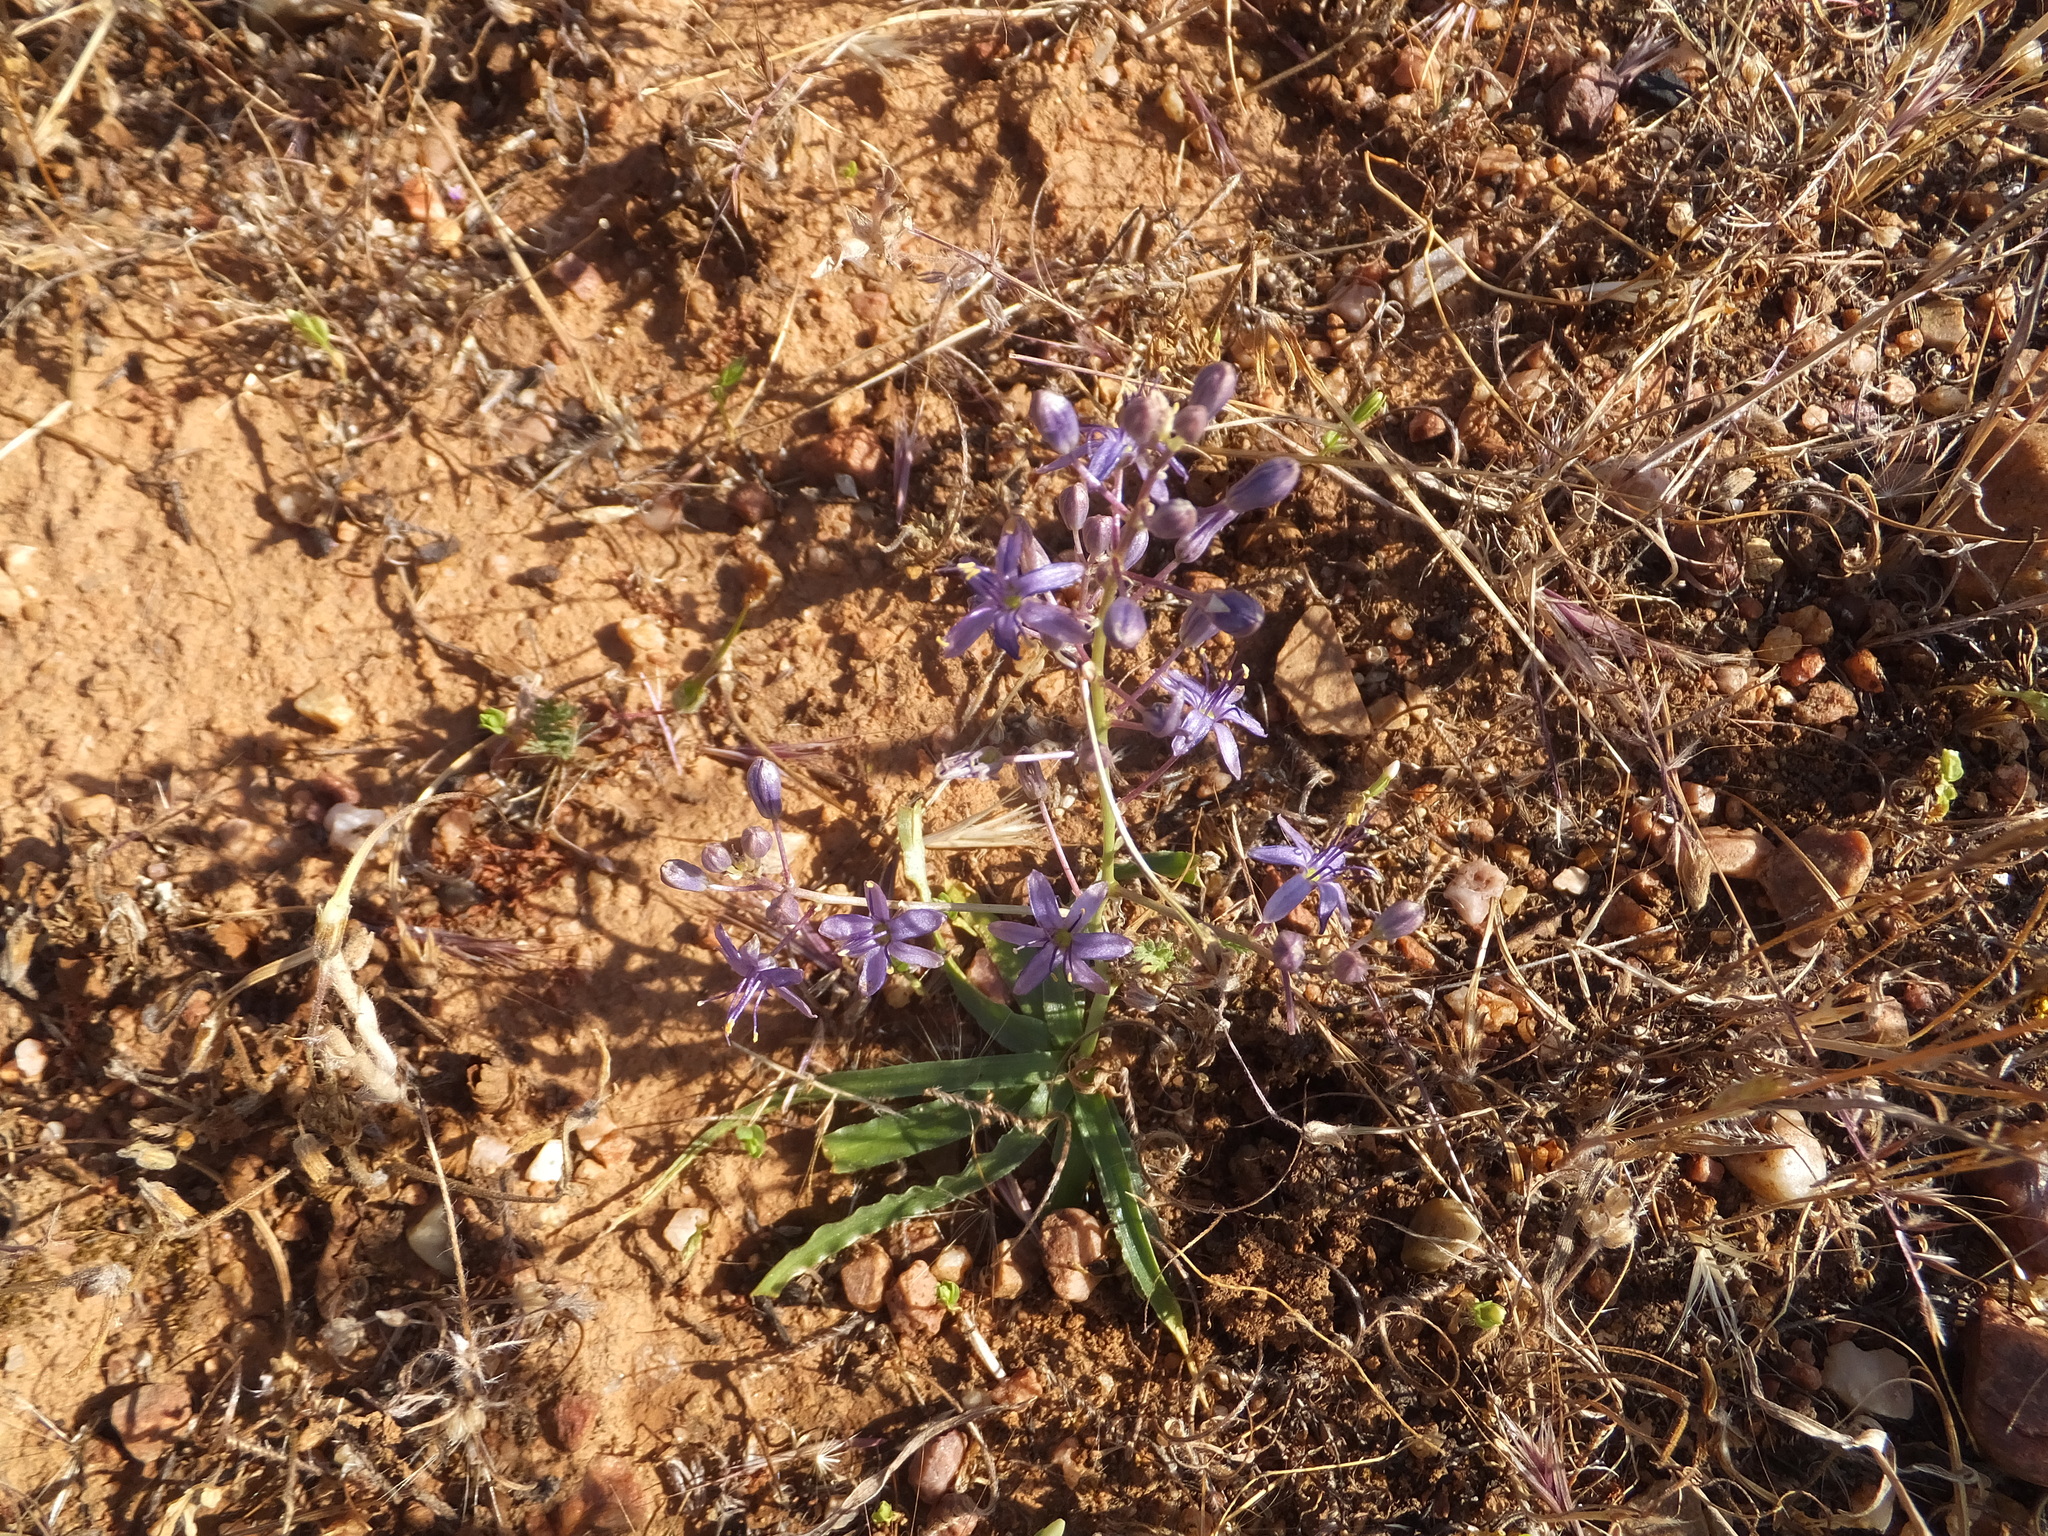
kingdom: Plantae
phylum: Tracheophyta
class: Liliopsida
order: Asparagales
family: Asparagaceae
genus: Hooveria
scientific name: Hooveria purpurea
